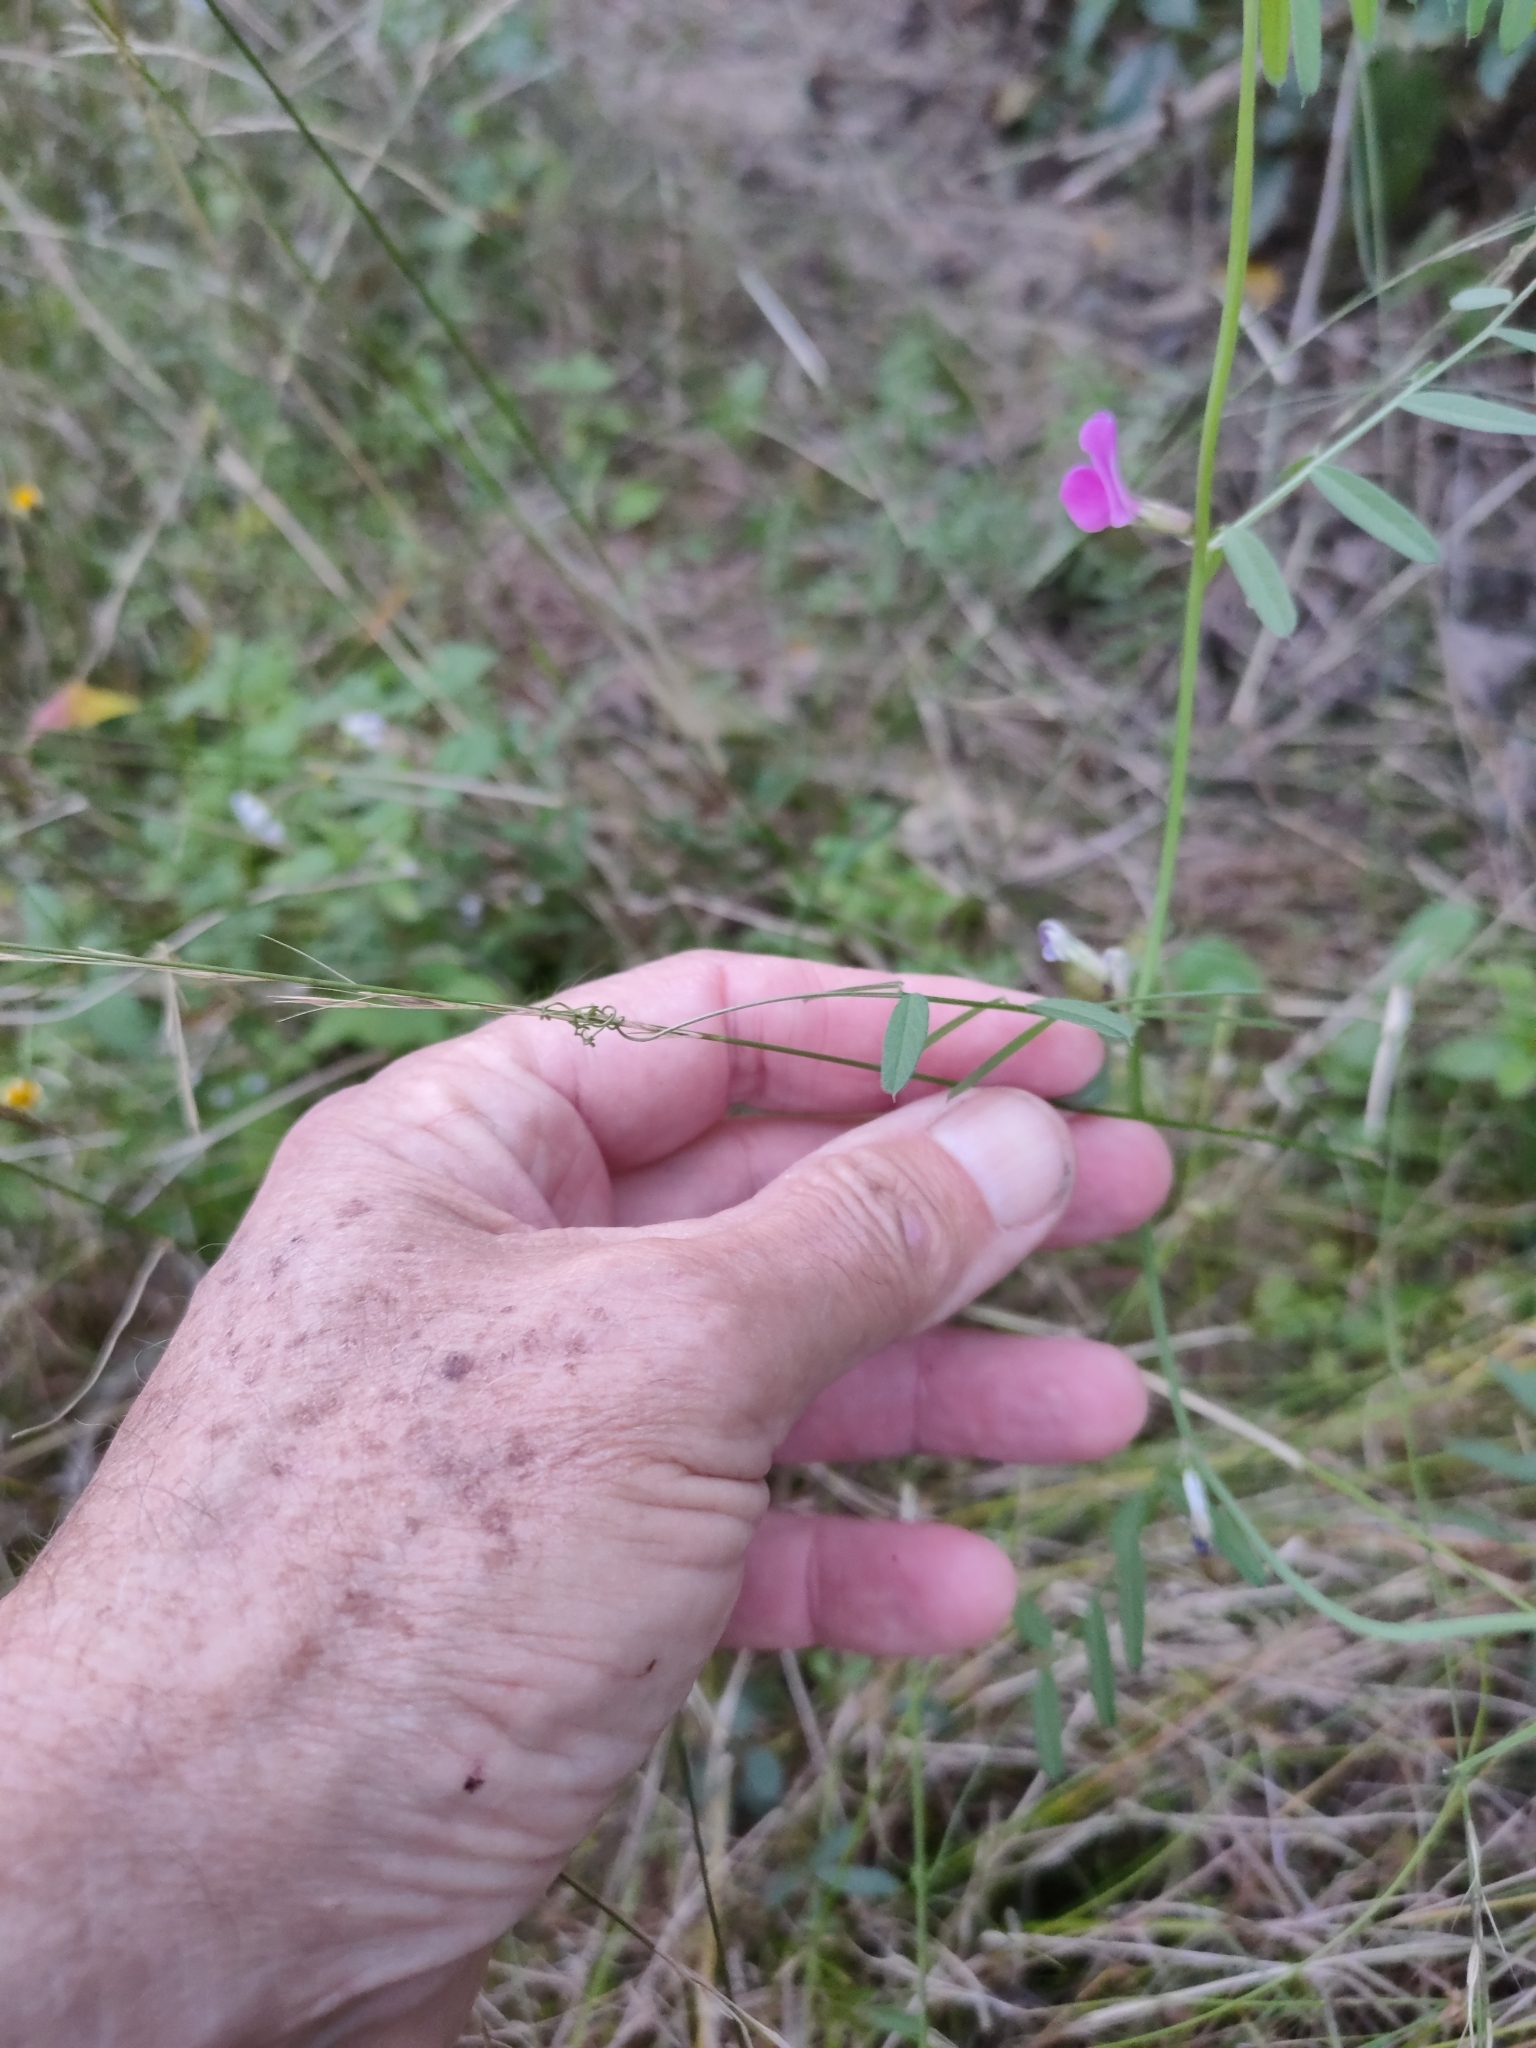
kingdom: Plantae
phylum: Tracheophyta
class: Magnoliopsida
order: Fabales
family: Fabaceae
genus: Vicia
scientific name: Vicia sativa
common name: Garden vetch
